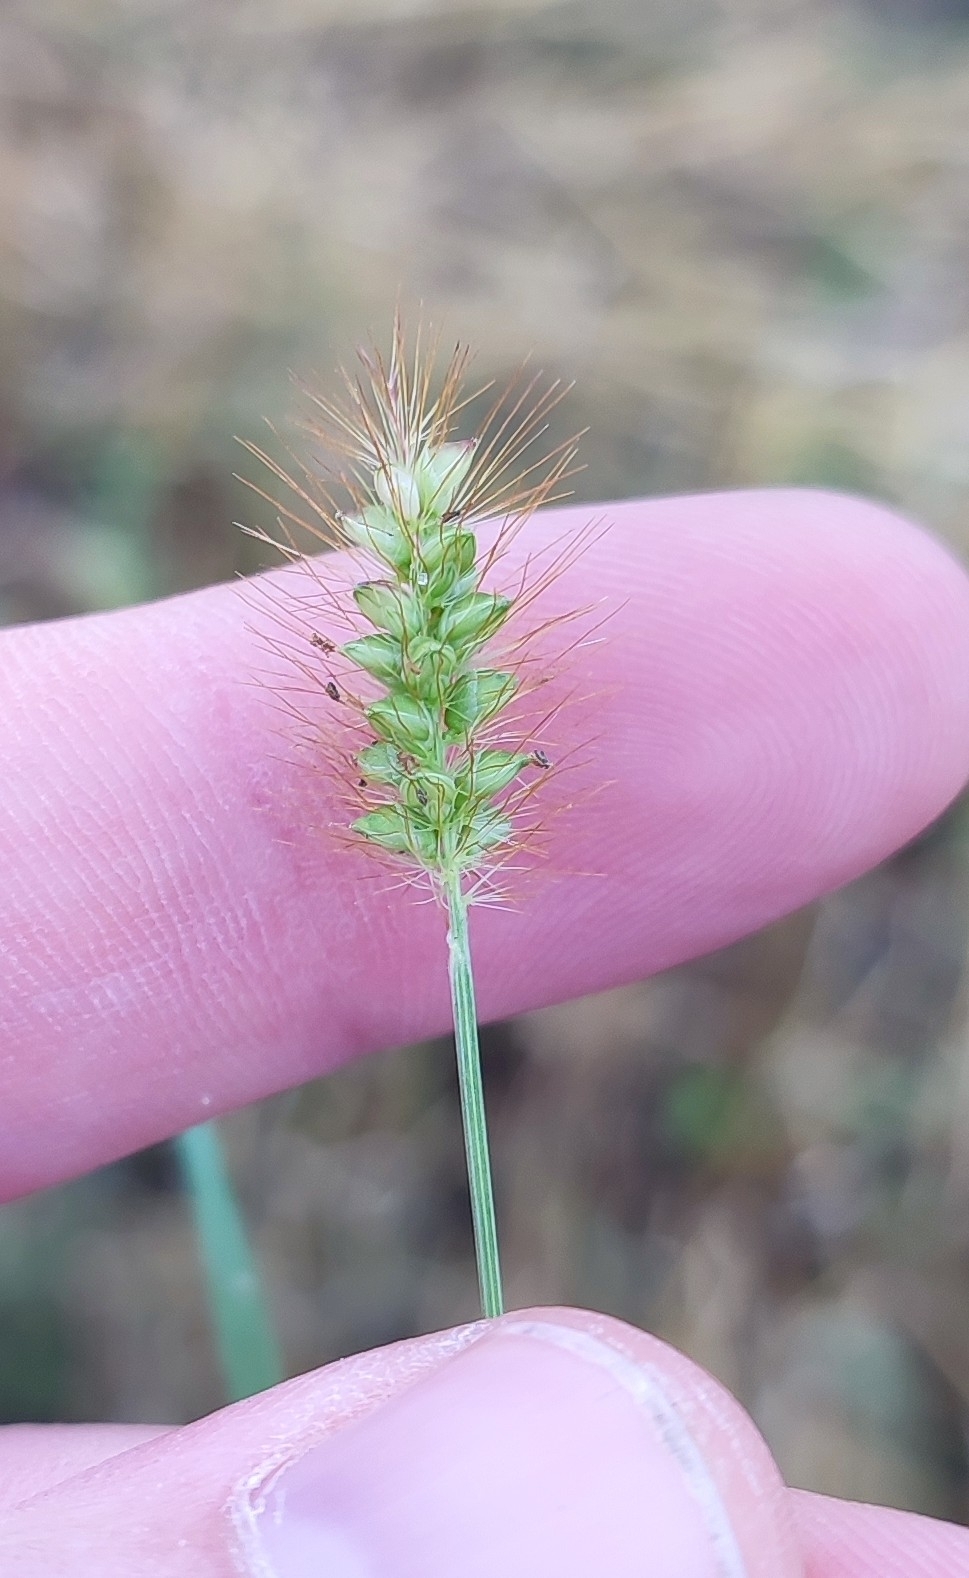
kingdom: Plantae
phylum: Tracheophyta
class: Liliopsida
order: Poales
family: Poaceae
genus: Setaria
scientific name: Setaria pumila
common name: Yellow bristle-grass
